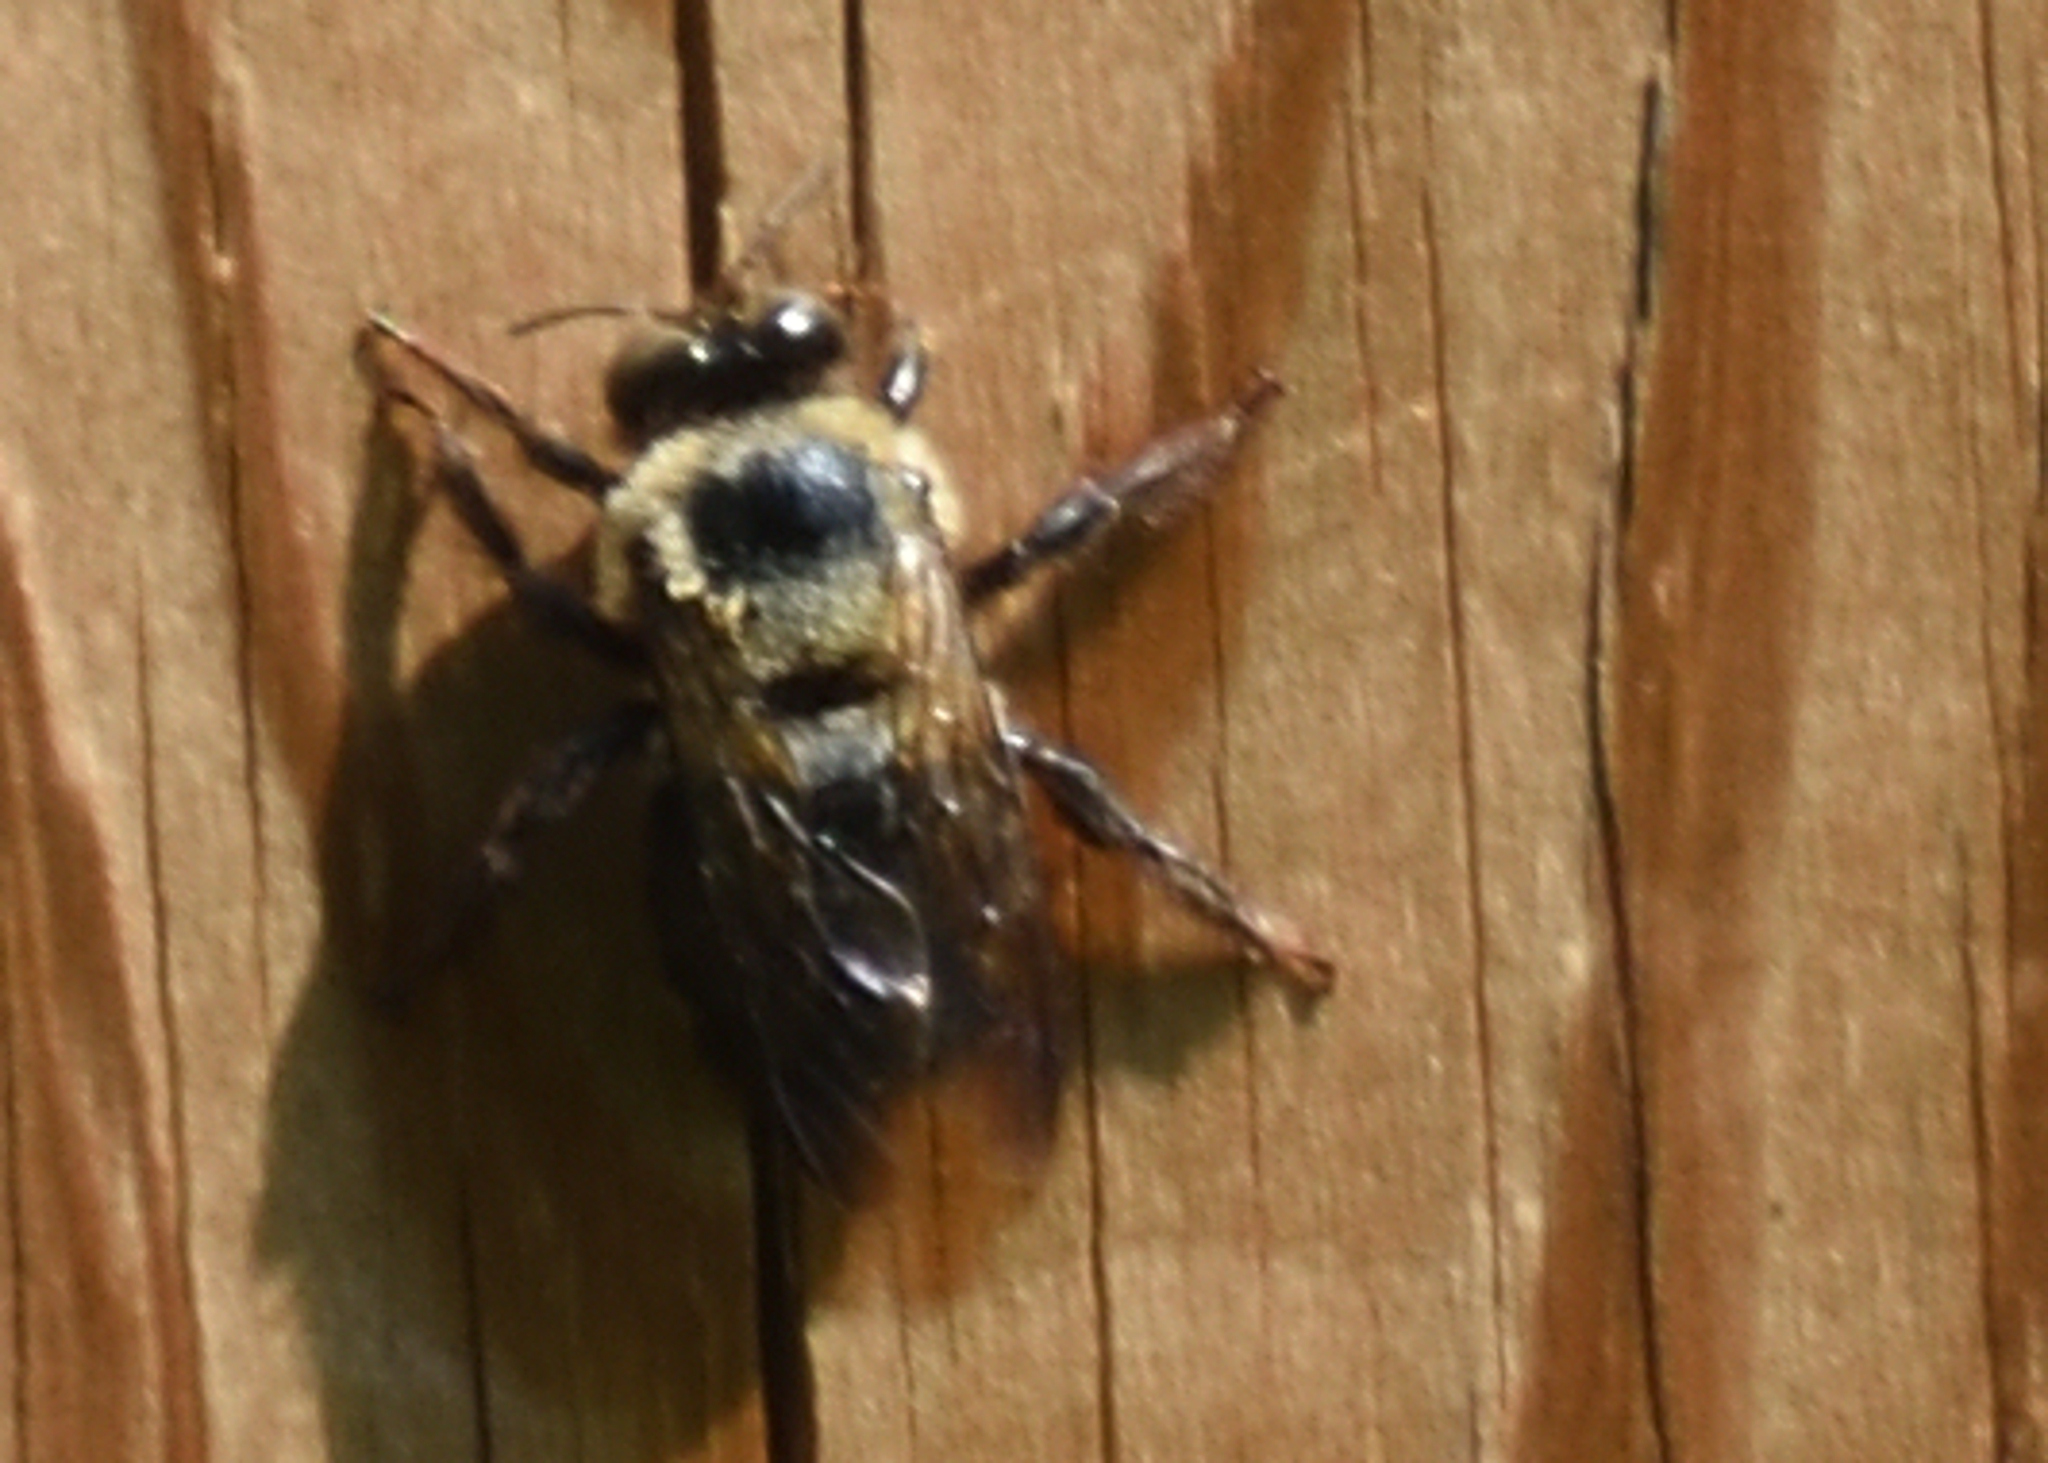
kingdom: Animalia
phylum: Arthropoda
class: Insecta
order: Hymenoptera
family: Apidae
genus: Xylocopa
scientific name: Xylocopa virginica
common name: Carpenter bee
